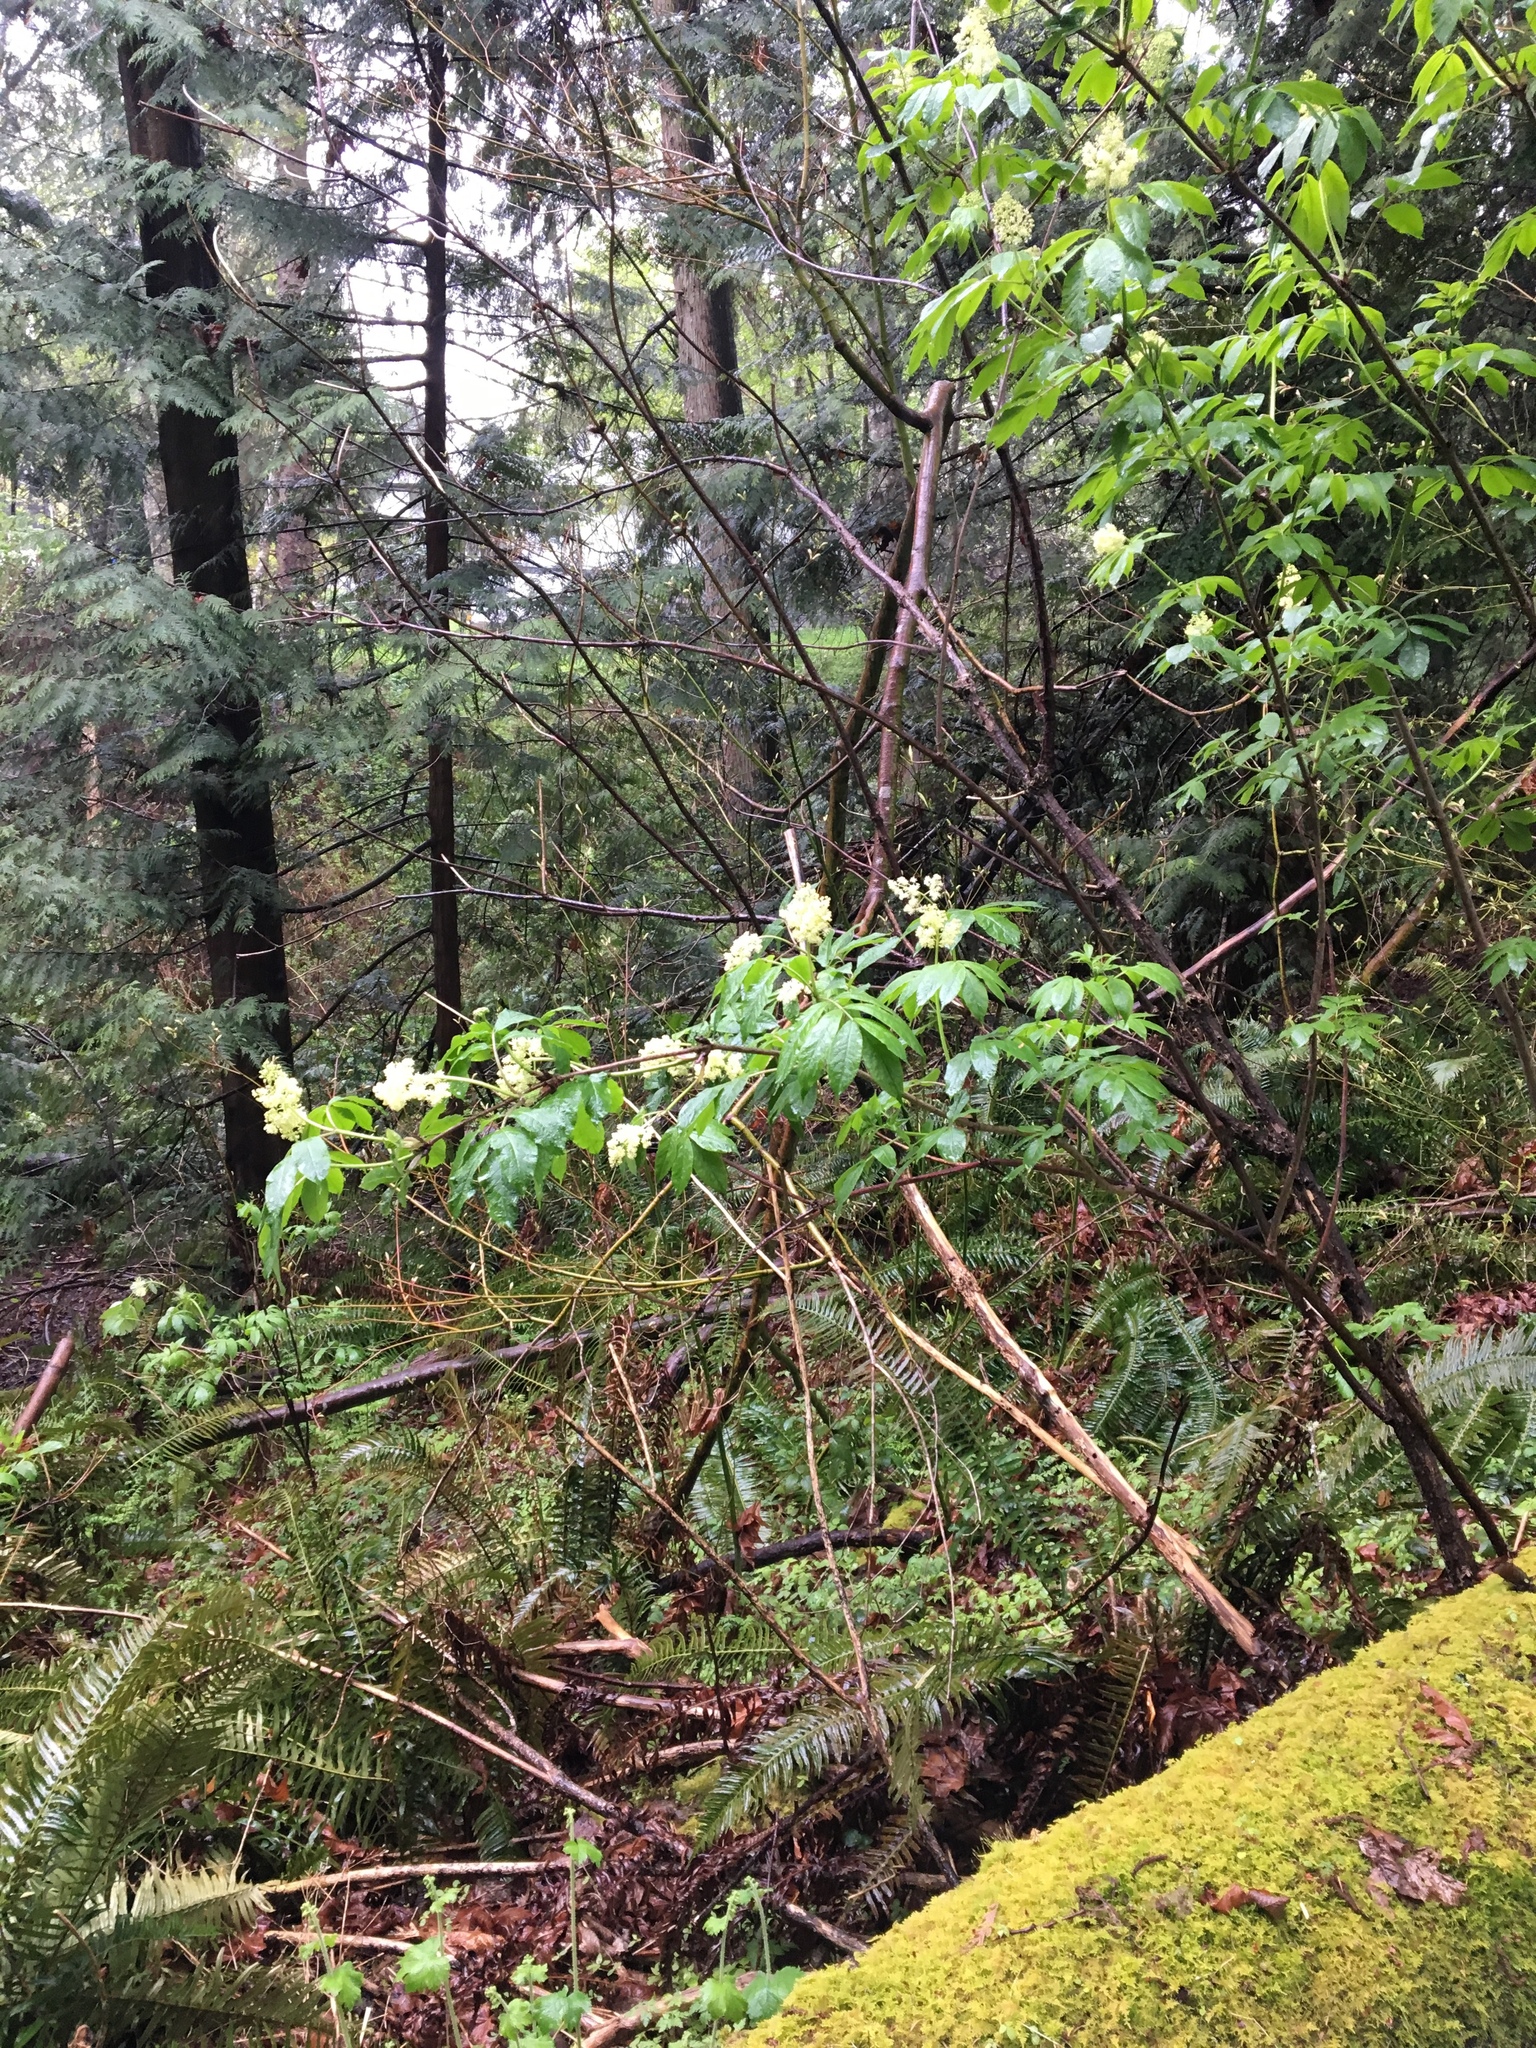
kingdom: Plantae
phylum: Tracheophyta
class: Magnoliopsida
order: Dipsacales
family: Viburnaceae
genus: Sambucus
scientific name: Sambucus racemosa
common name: Red-berried elder
